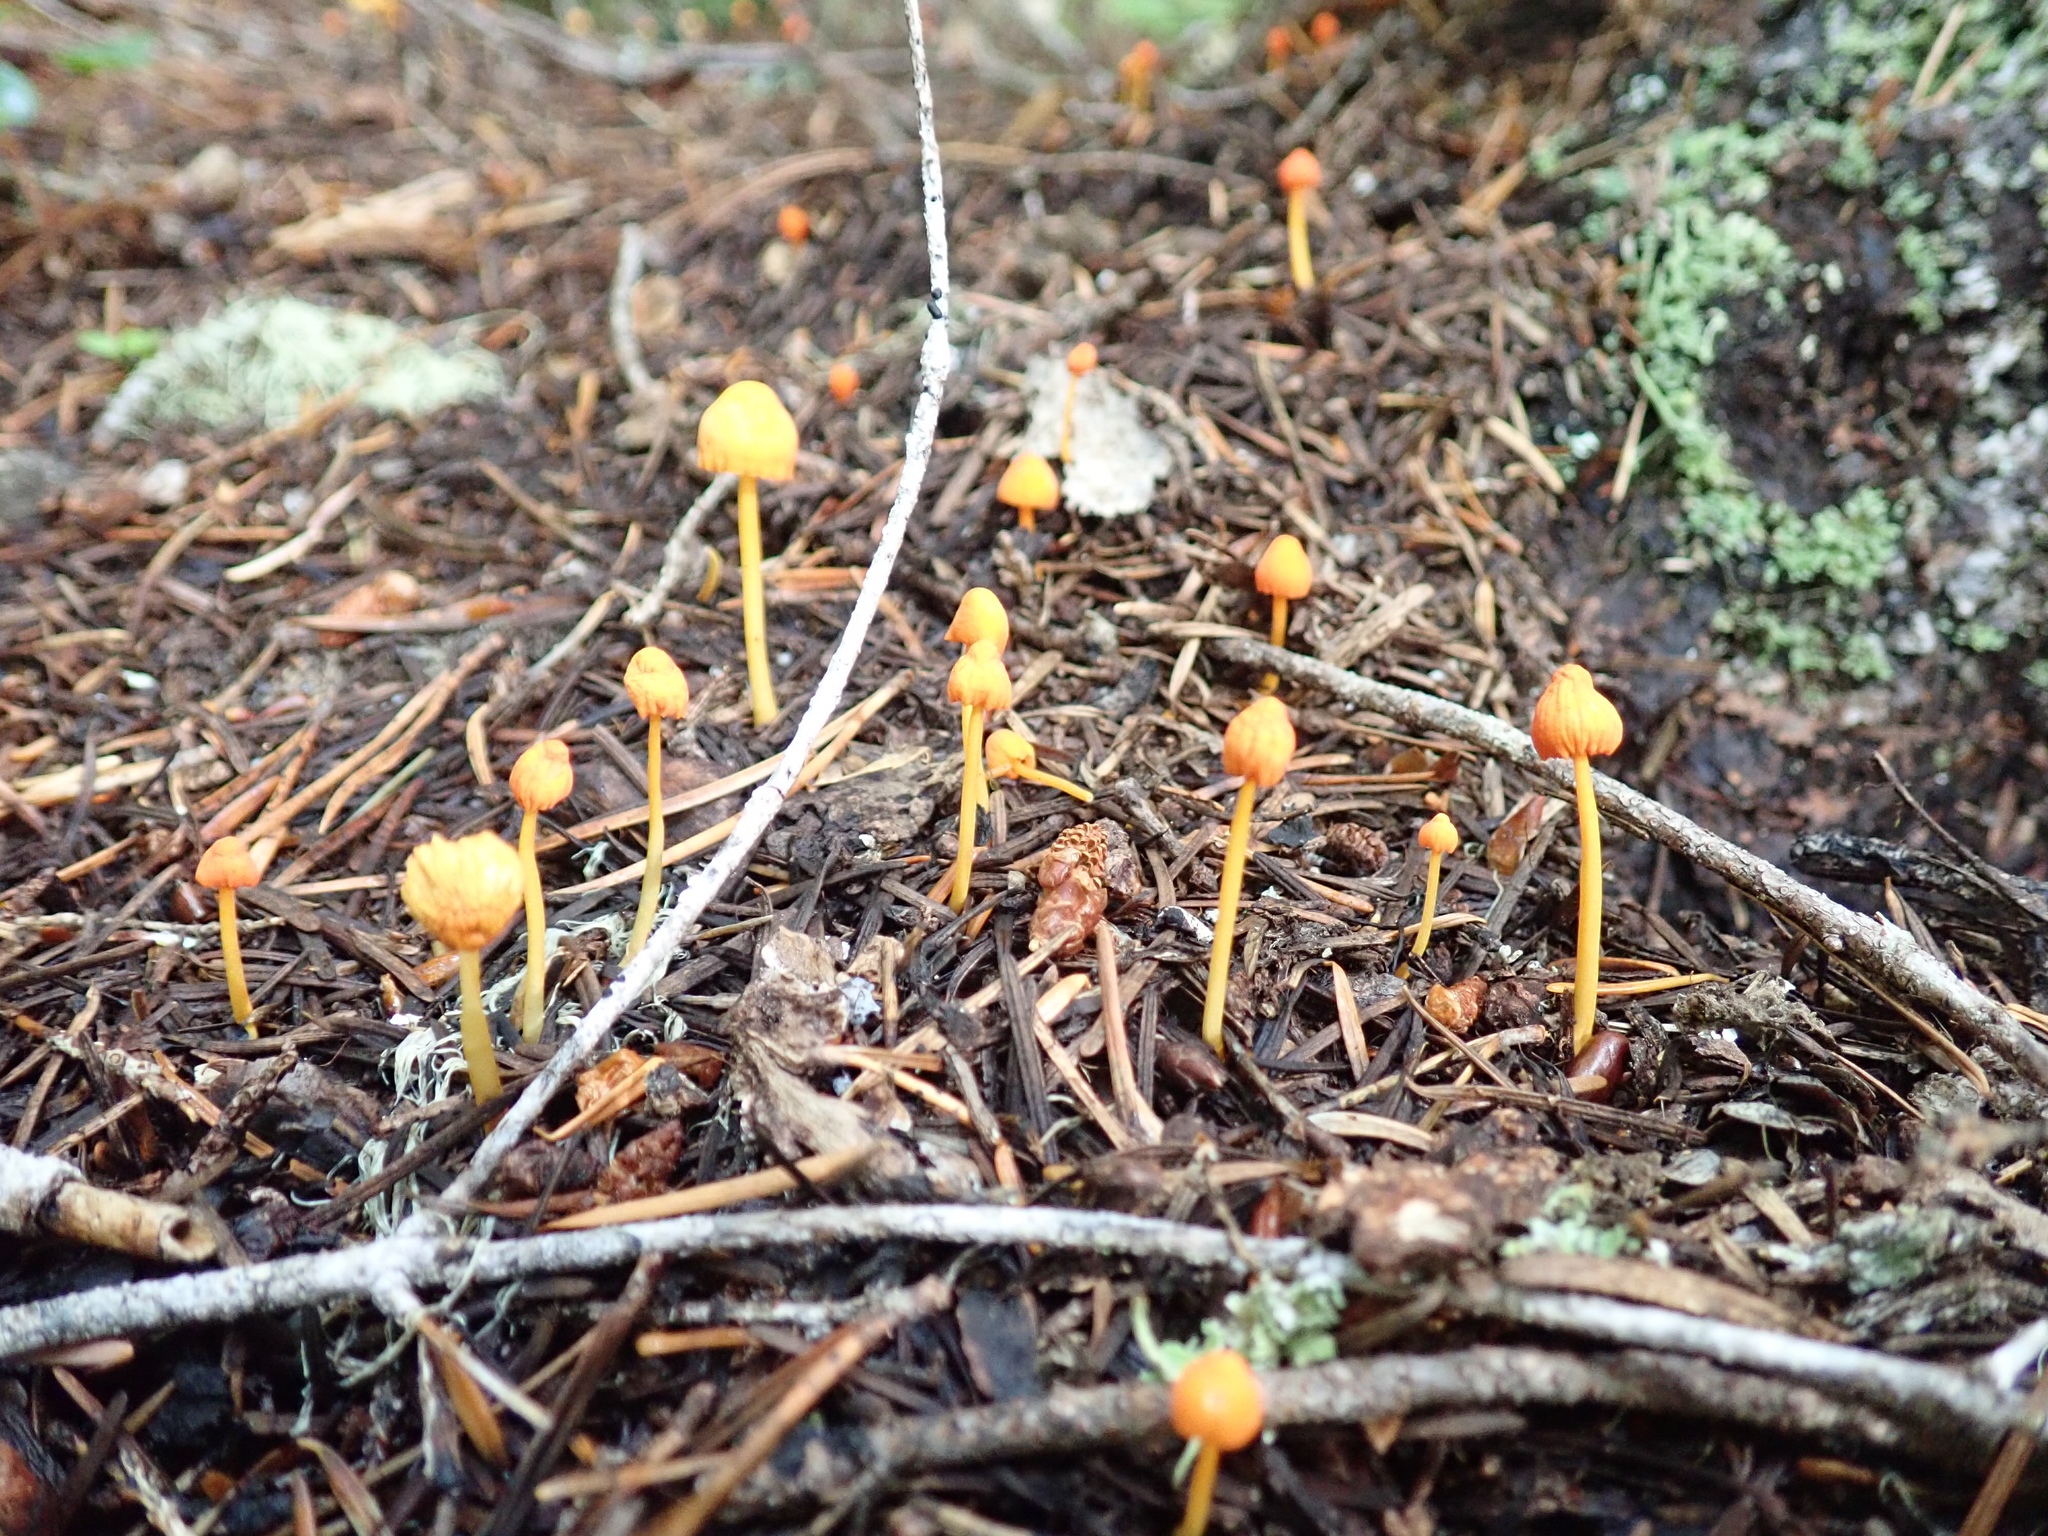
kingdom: Fungi
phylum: Basidiomycota
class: Agaricomycetes
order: Agaricales
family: Mycenaceae
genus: Mycena
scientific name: Mycena strobilinoidea
